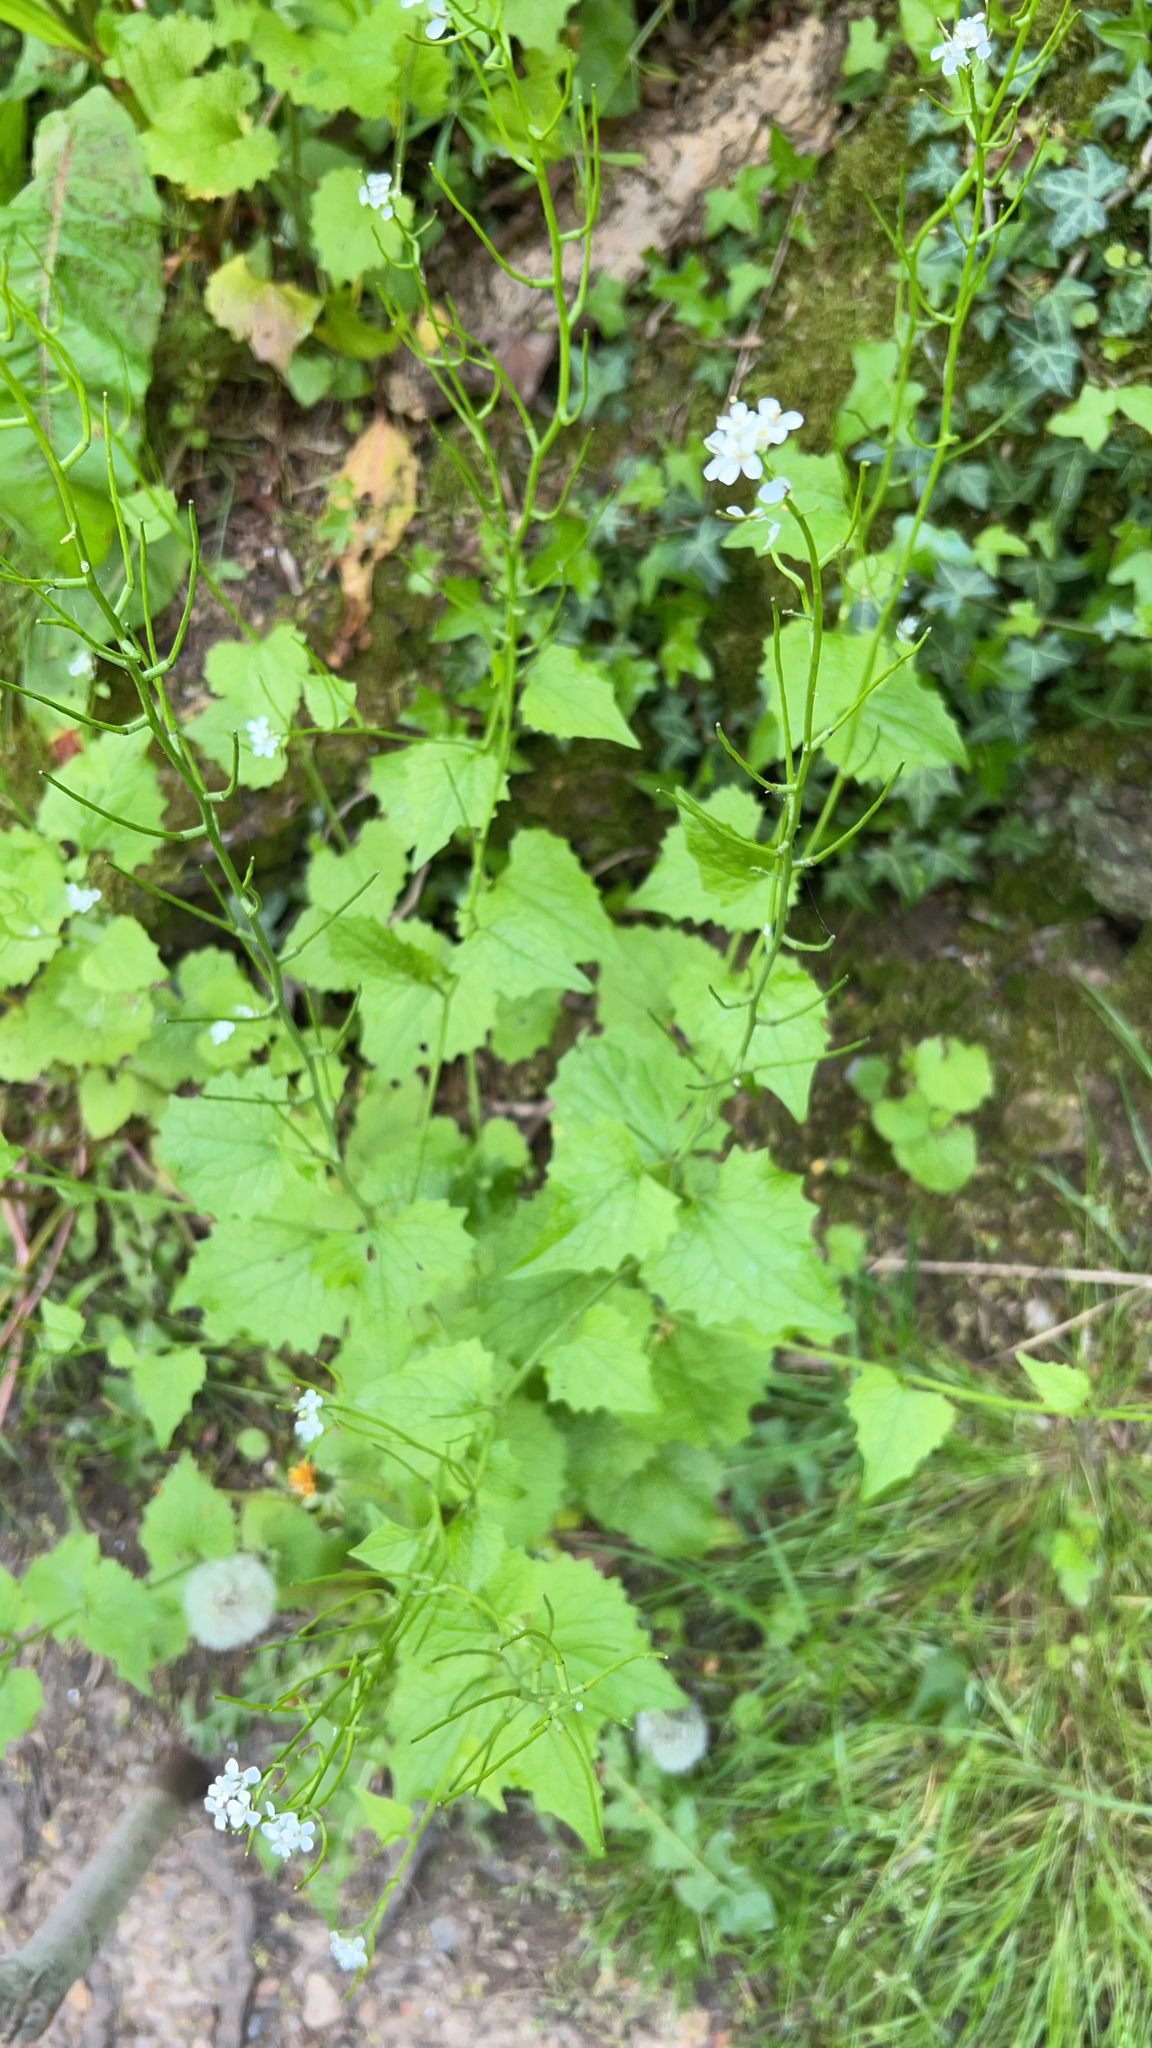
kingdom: Plantae
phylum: Tracheophyta
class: Magnoliopsida
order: Brassicales
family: Brassicaceae
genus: Alliaria
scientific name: Alliaria petiolata
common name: Garlic mustard
